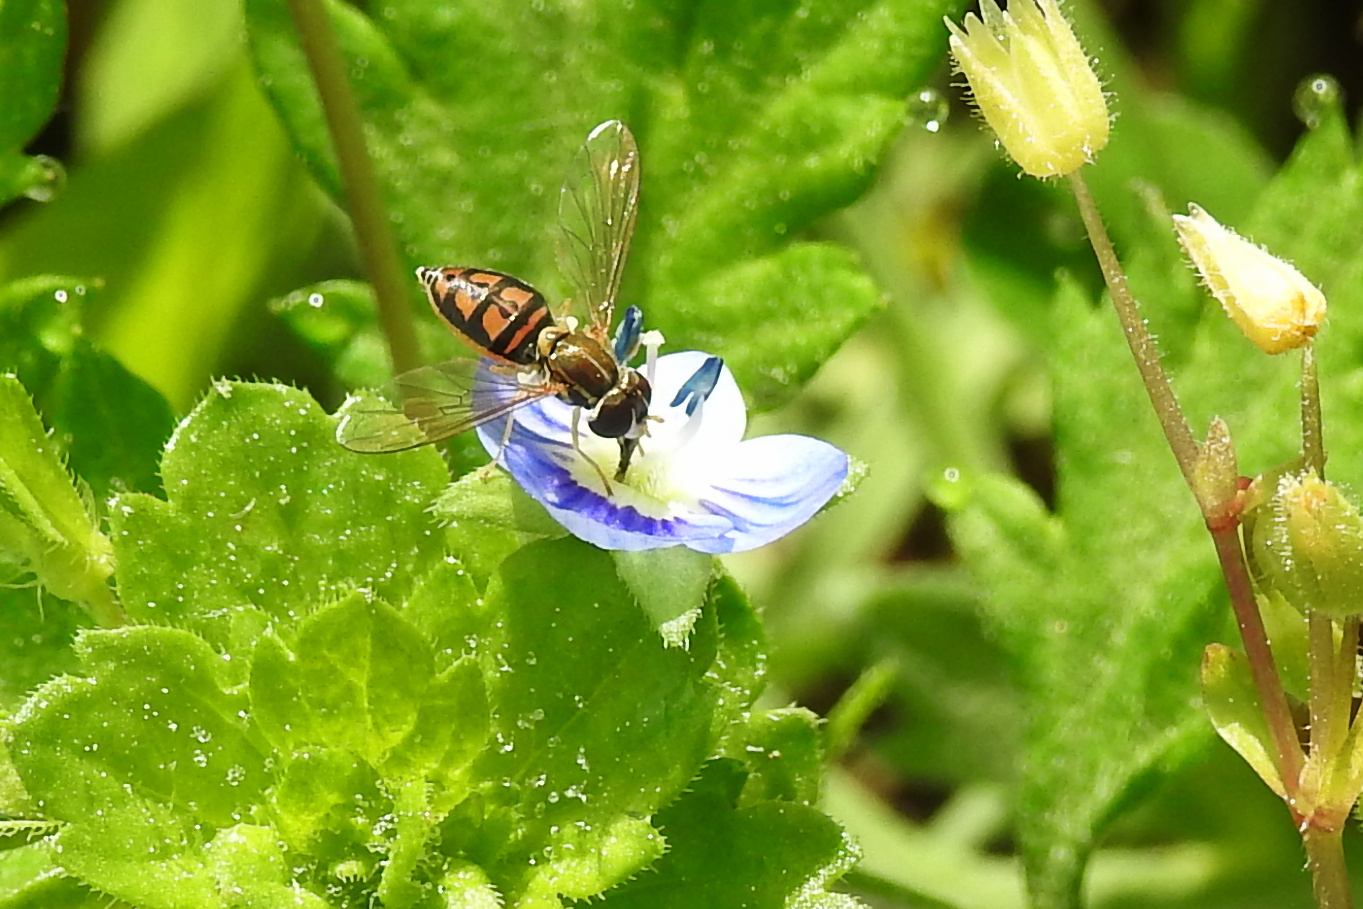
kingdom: Animalia
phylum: Arthropoda
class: Insecta
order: Diptera
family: Syrphidae
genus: Toxomerus
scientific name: Toxomerus marginatus
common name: Syrphid fly
